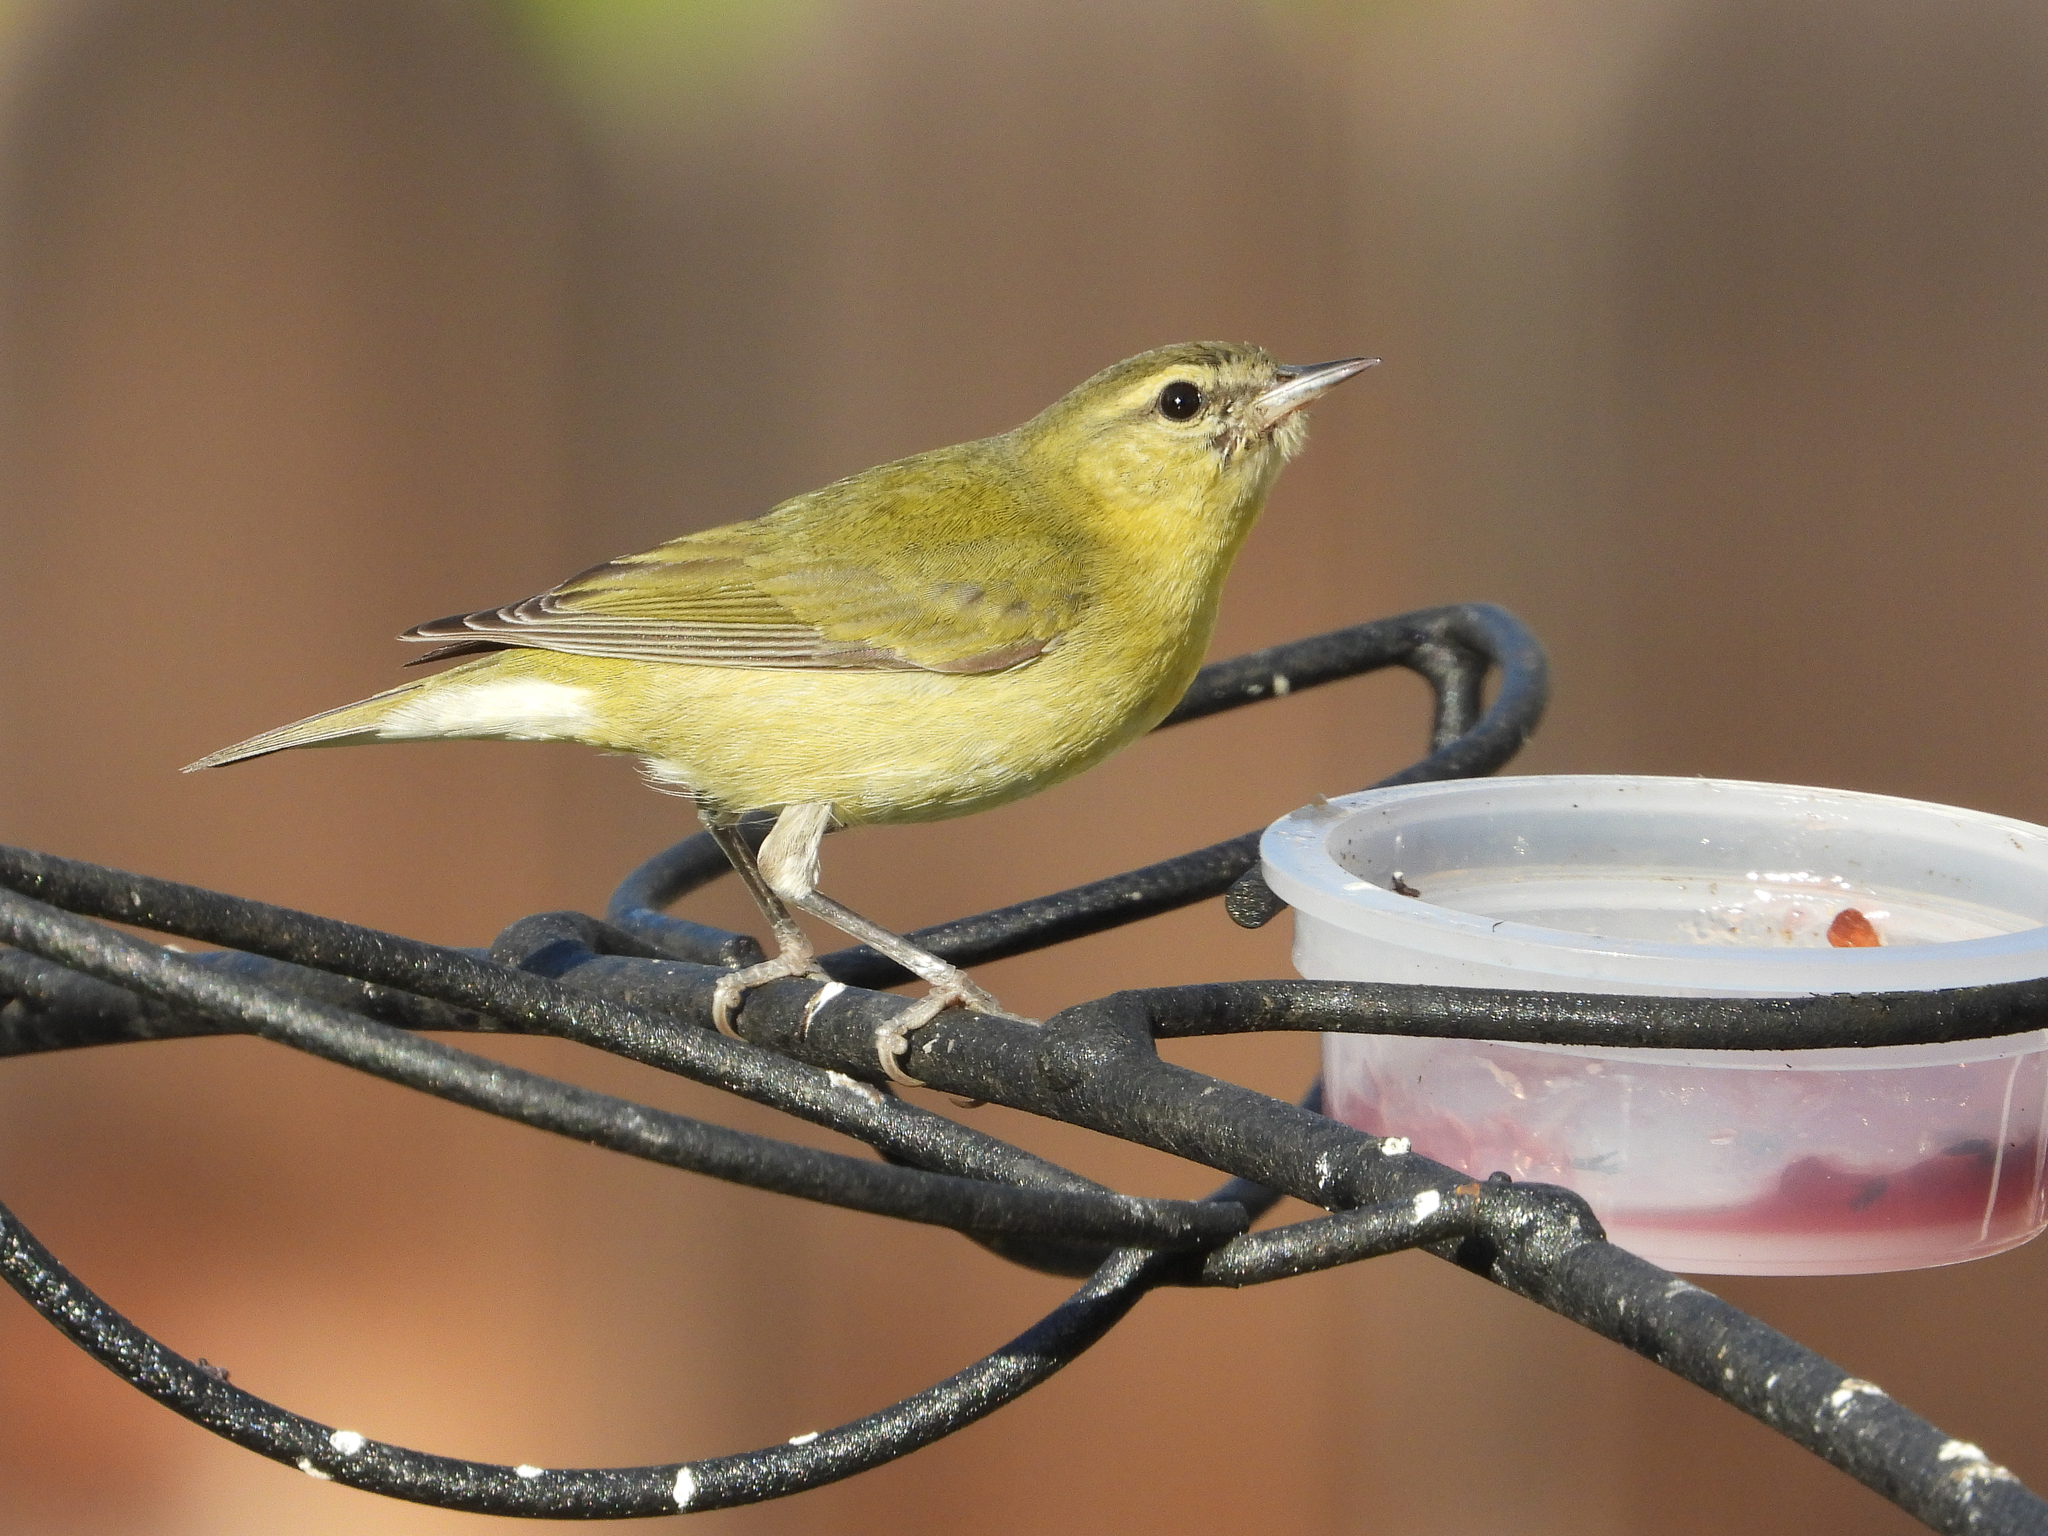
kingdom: Animalia
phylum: Chordata
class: Aves
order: Passeriformes
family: Parulidae
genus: Leiothlypis
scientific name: Leiothlypis peregrina
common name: Tennessee warbler
